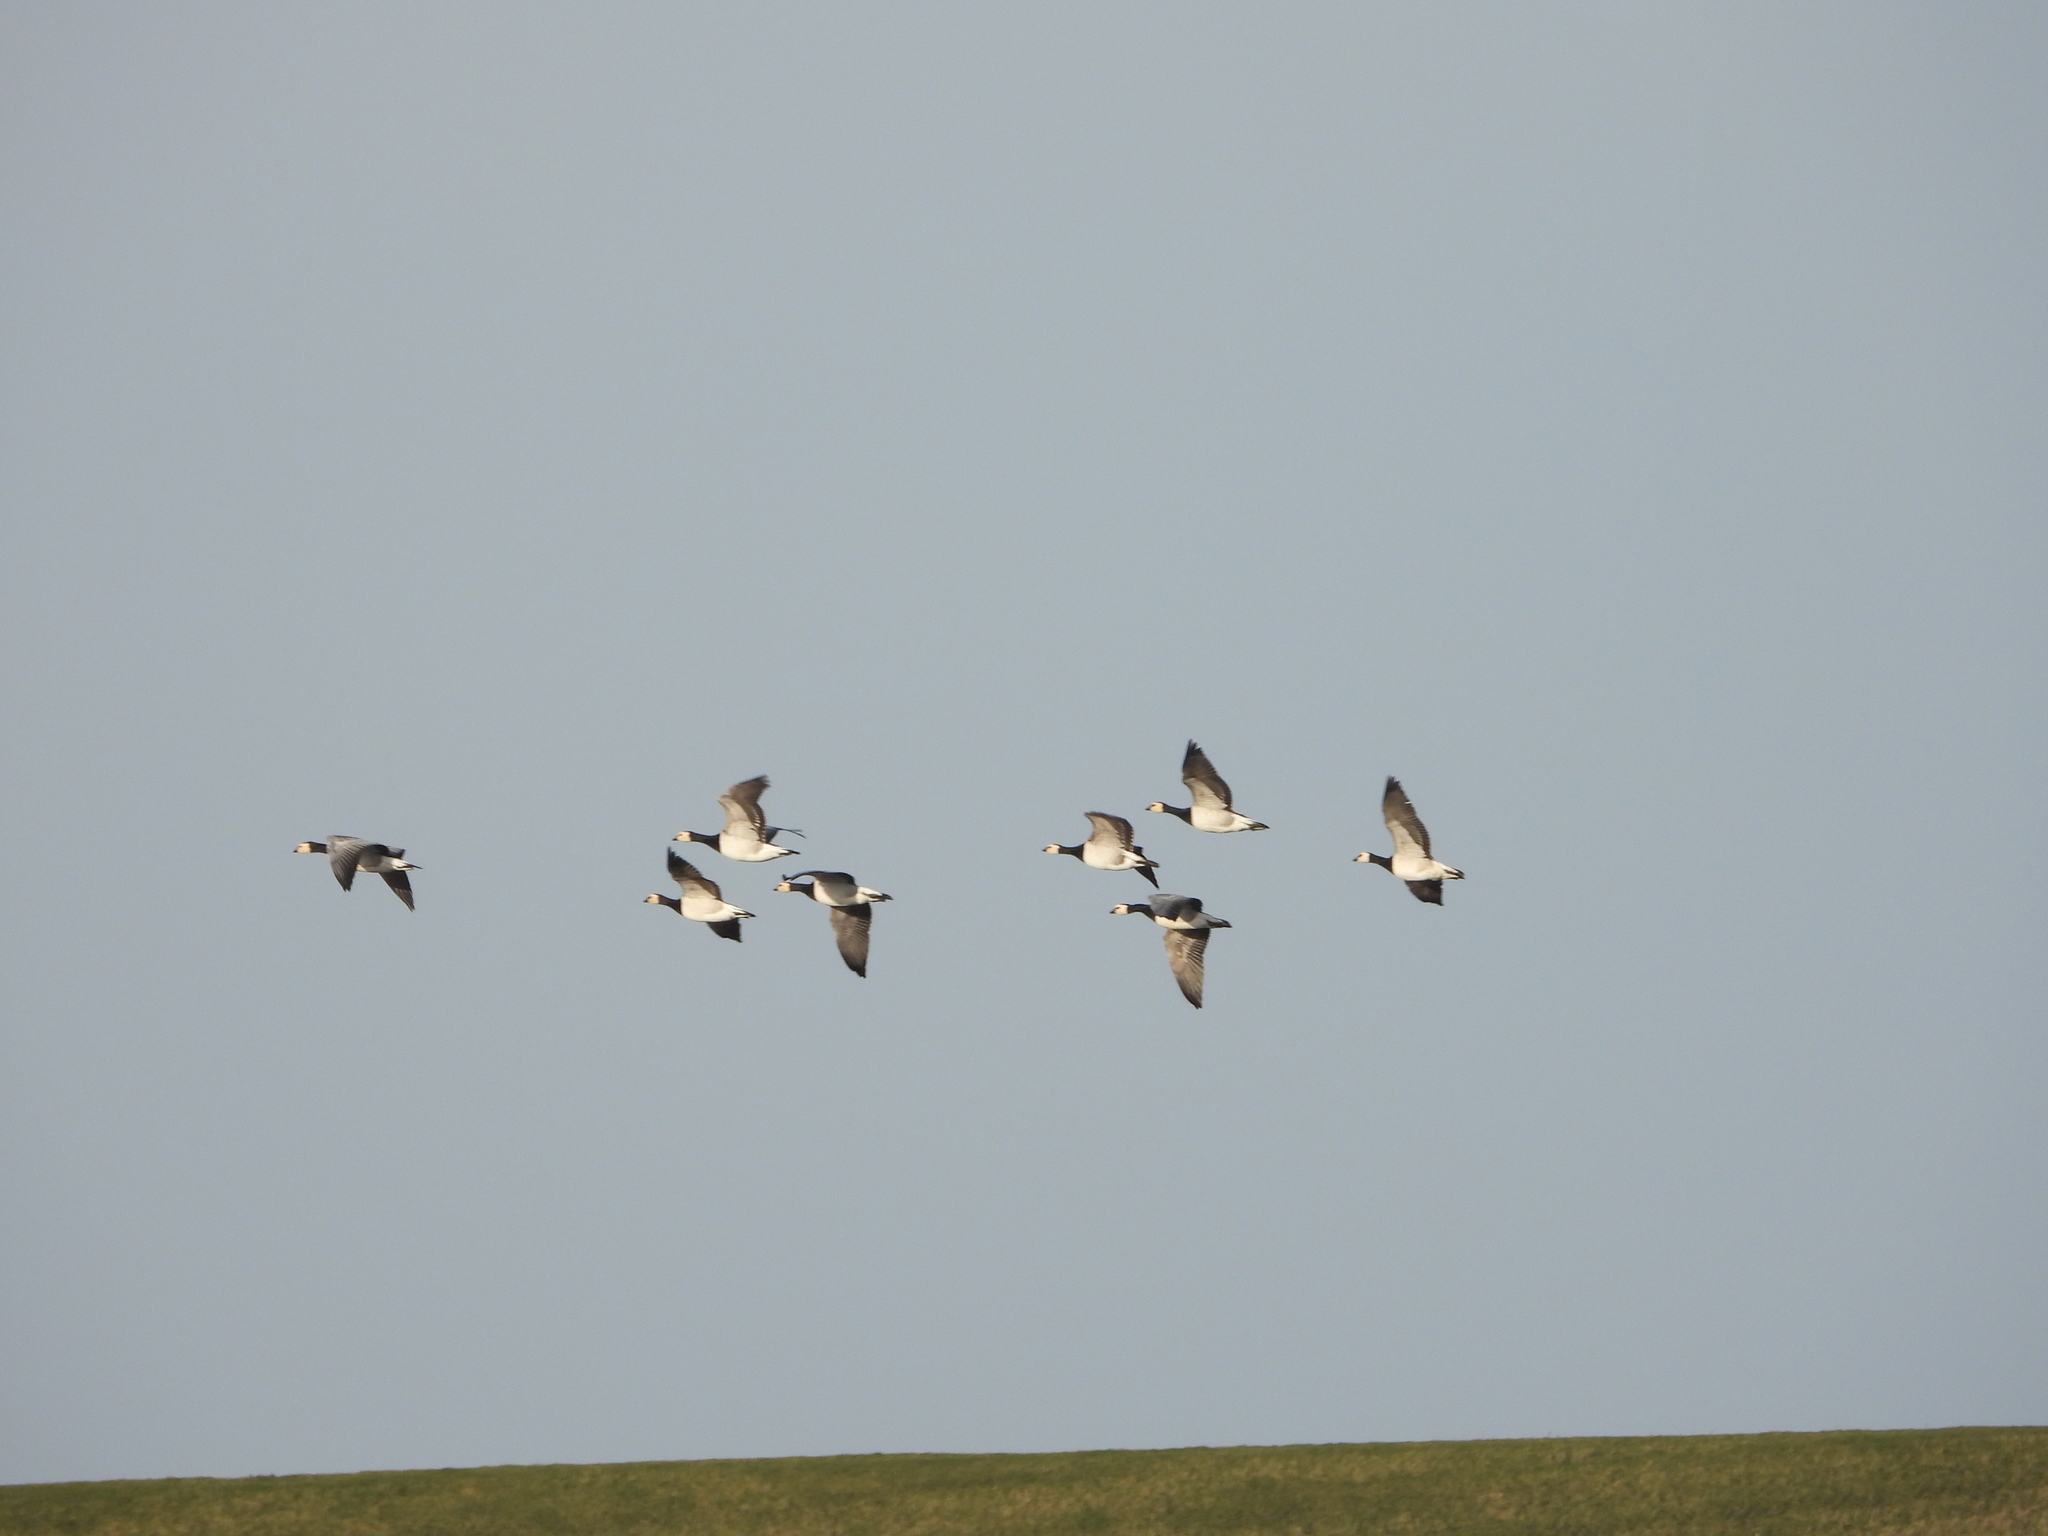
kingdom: Animalia
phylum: Chordata
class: Aves
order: Anseriformes
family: Anatidae
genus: Branta
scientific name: Branta leucopsis
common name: Barnacle goose
